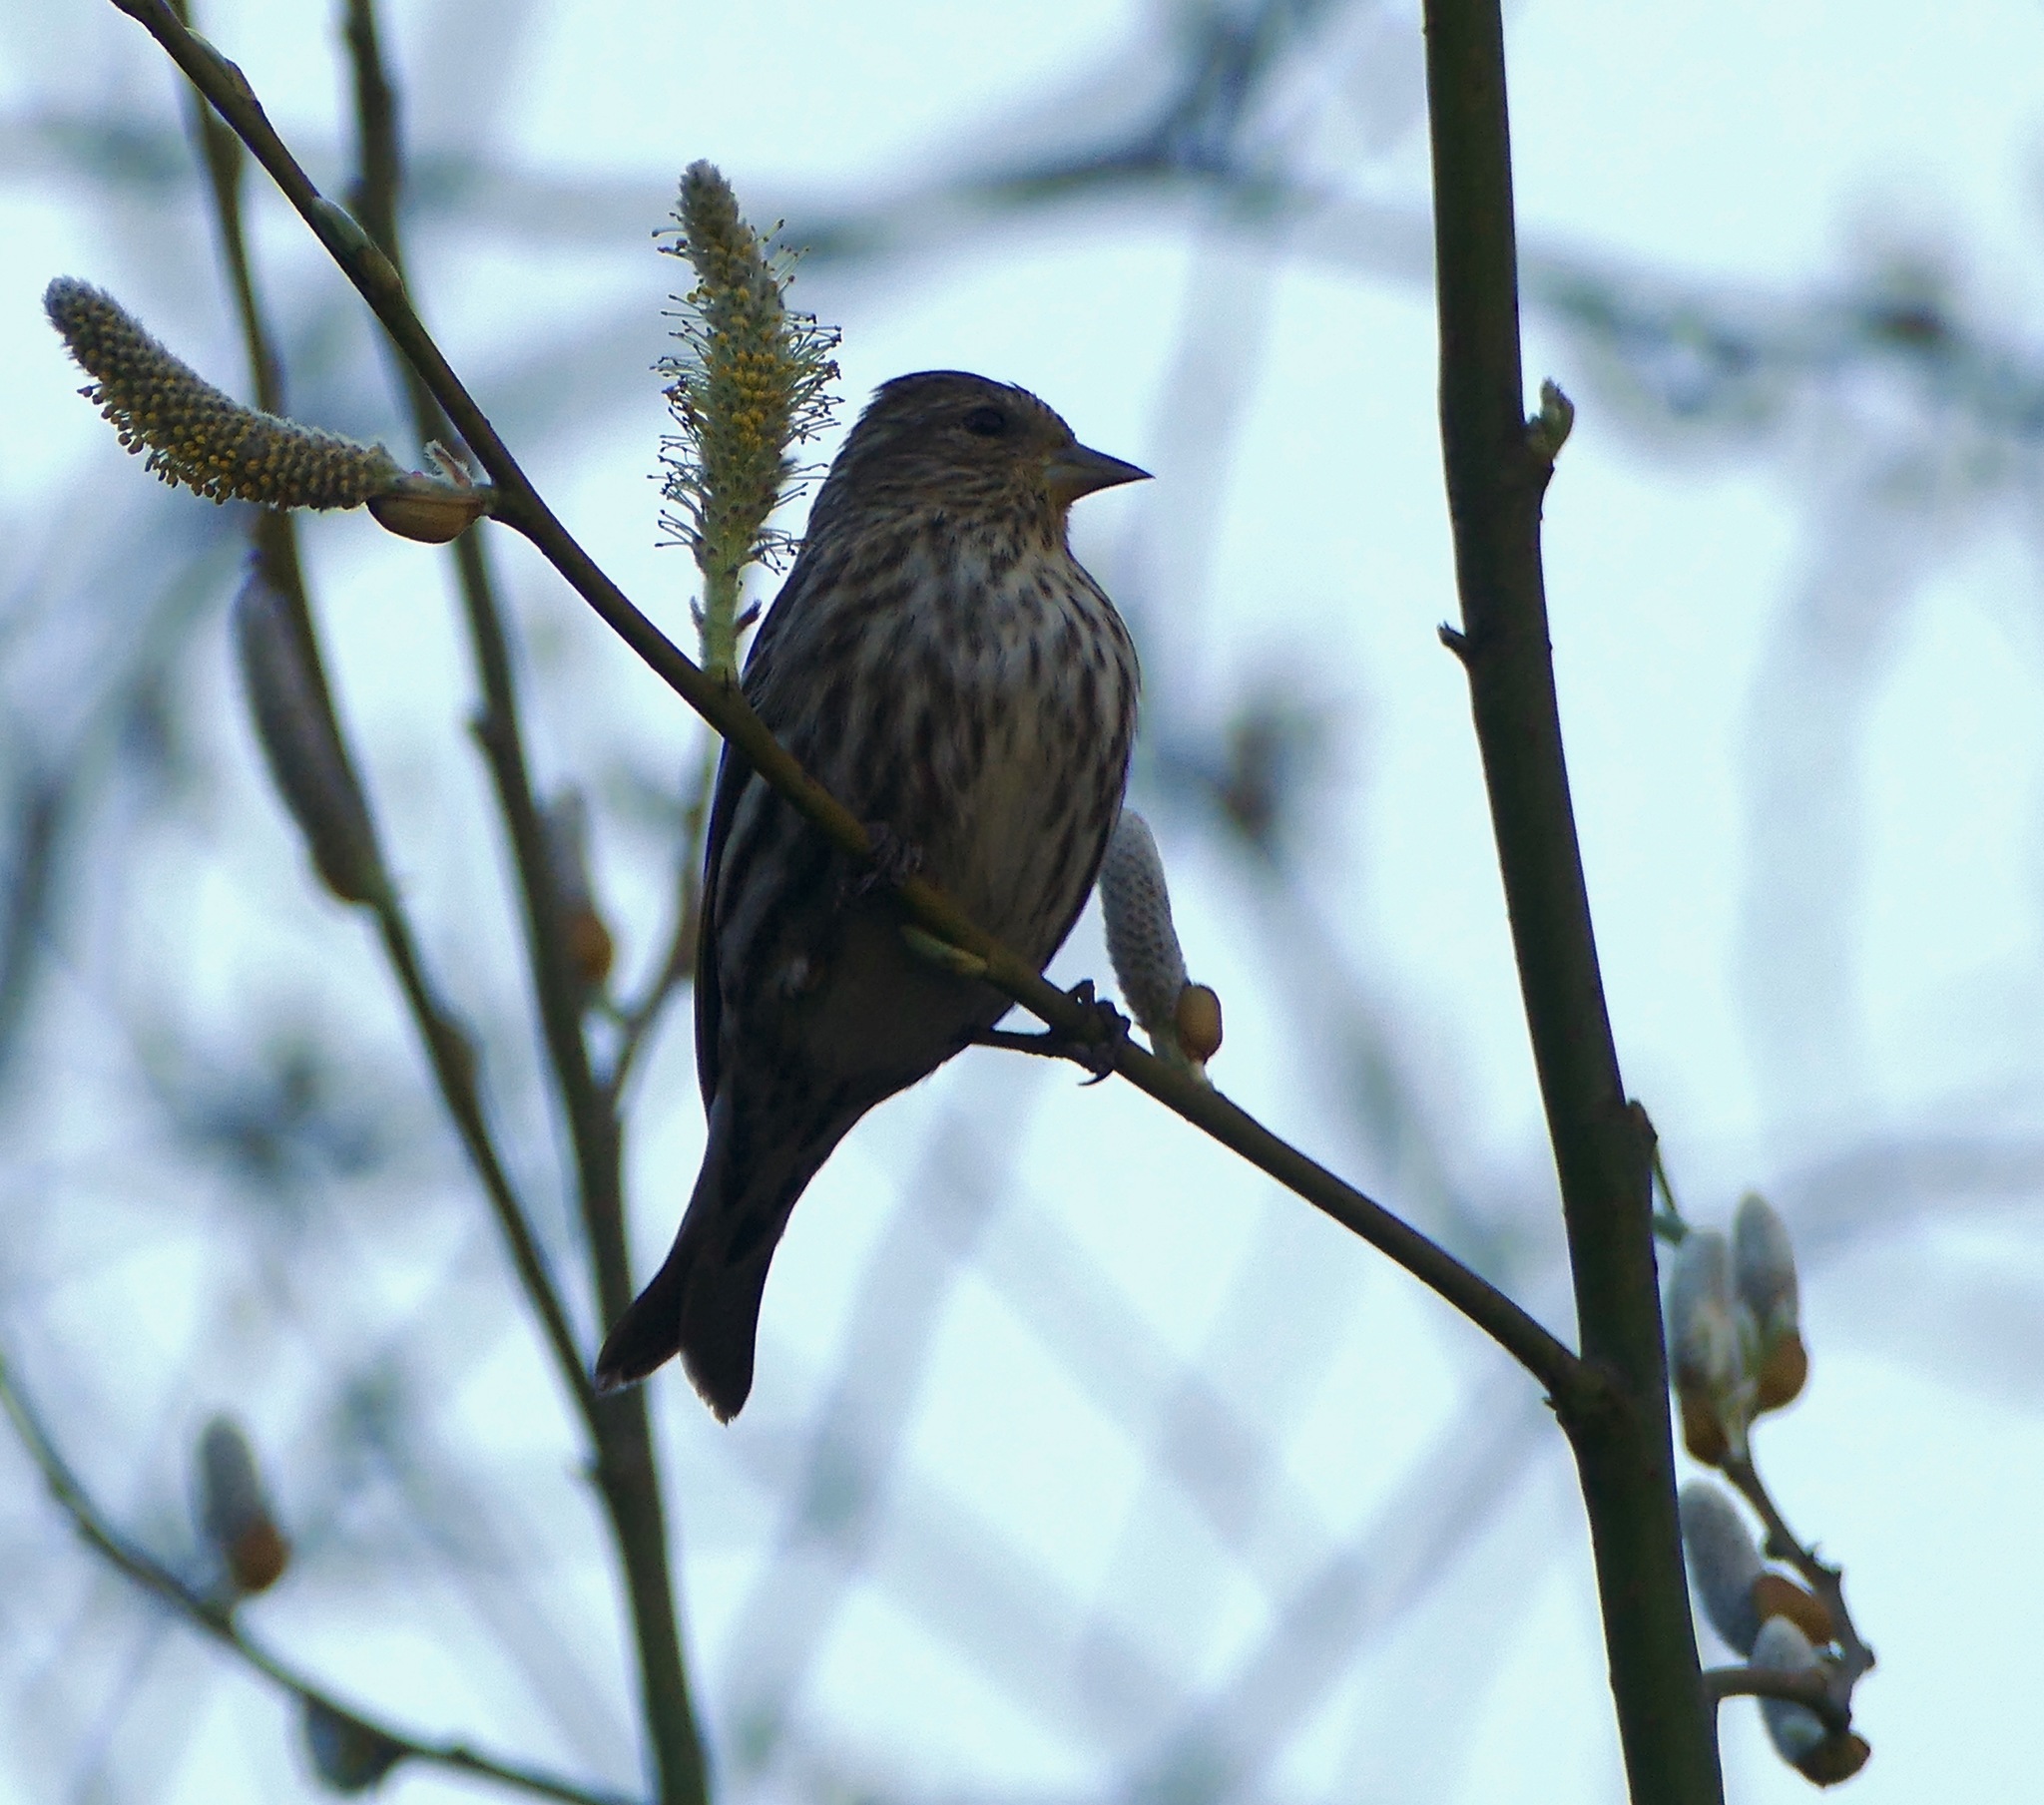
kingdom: Animalia
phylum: Chordata
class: Aves
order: Passeriformes
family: Fringillidae
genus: Spinus
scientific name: Spinus pinus
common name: Pine siskin
